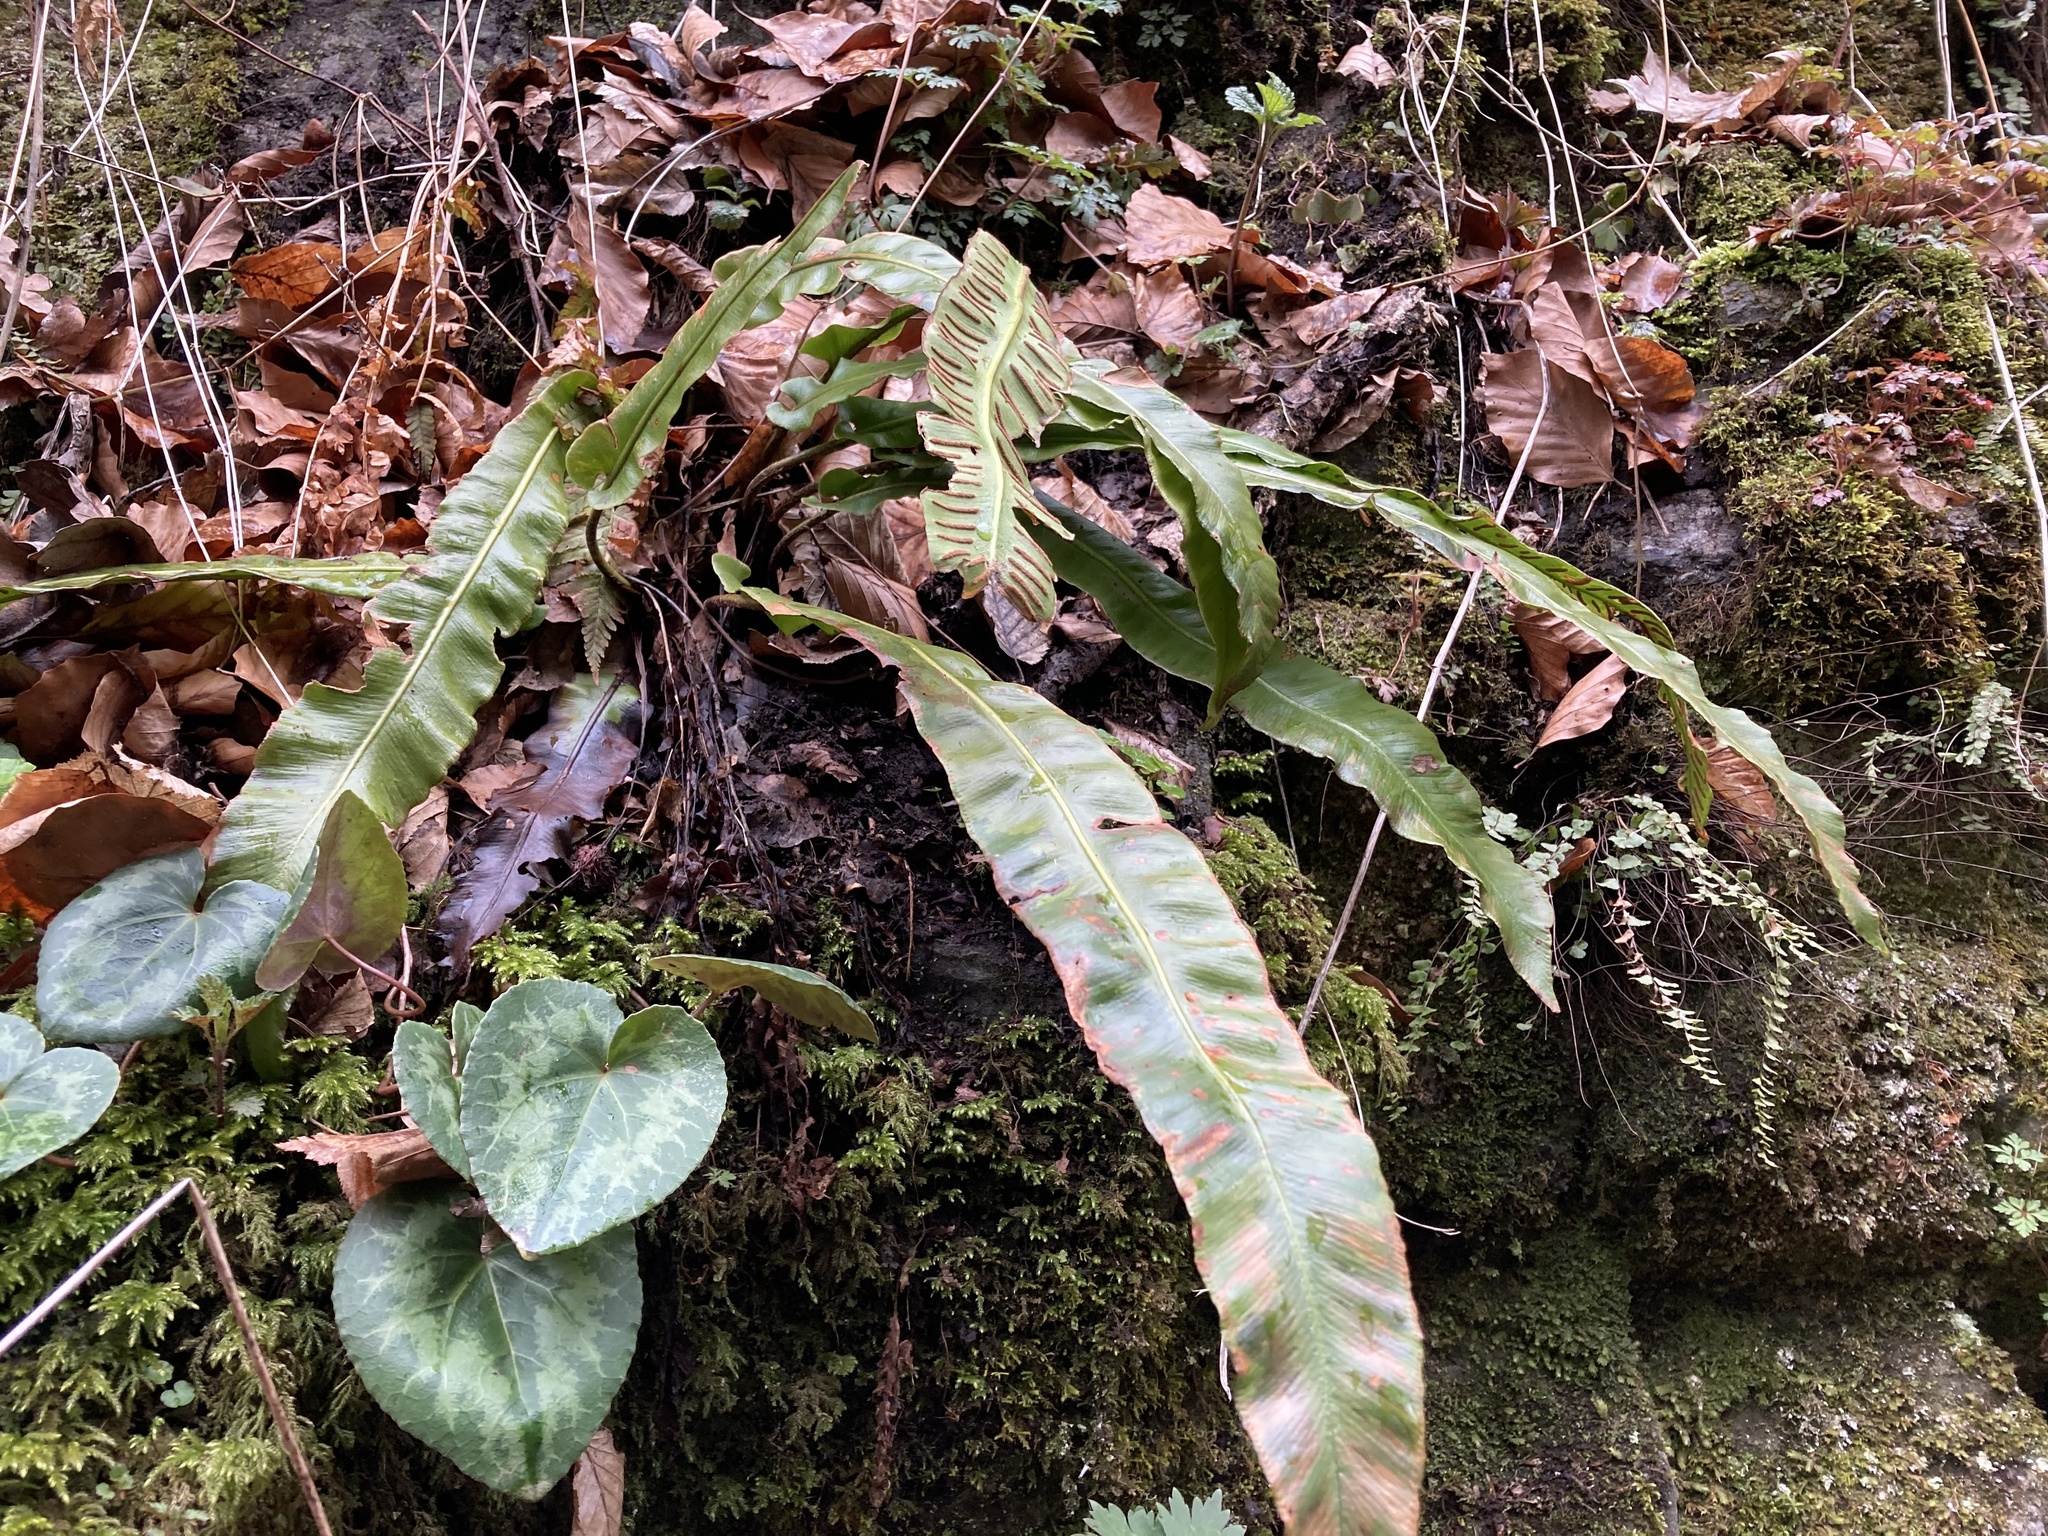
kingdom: Plantae
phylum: Tracheophyta
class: Polypodiopsida
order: Polypodiales
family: Aspleniaceae
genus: Asplenium
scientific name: Asplenium scolopendrium
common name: Hart's-tongue fern
